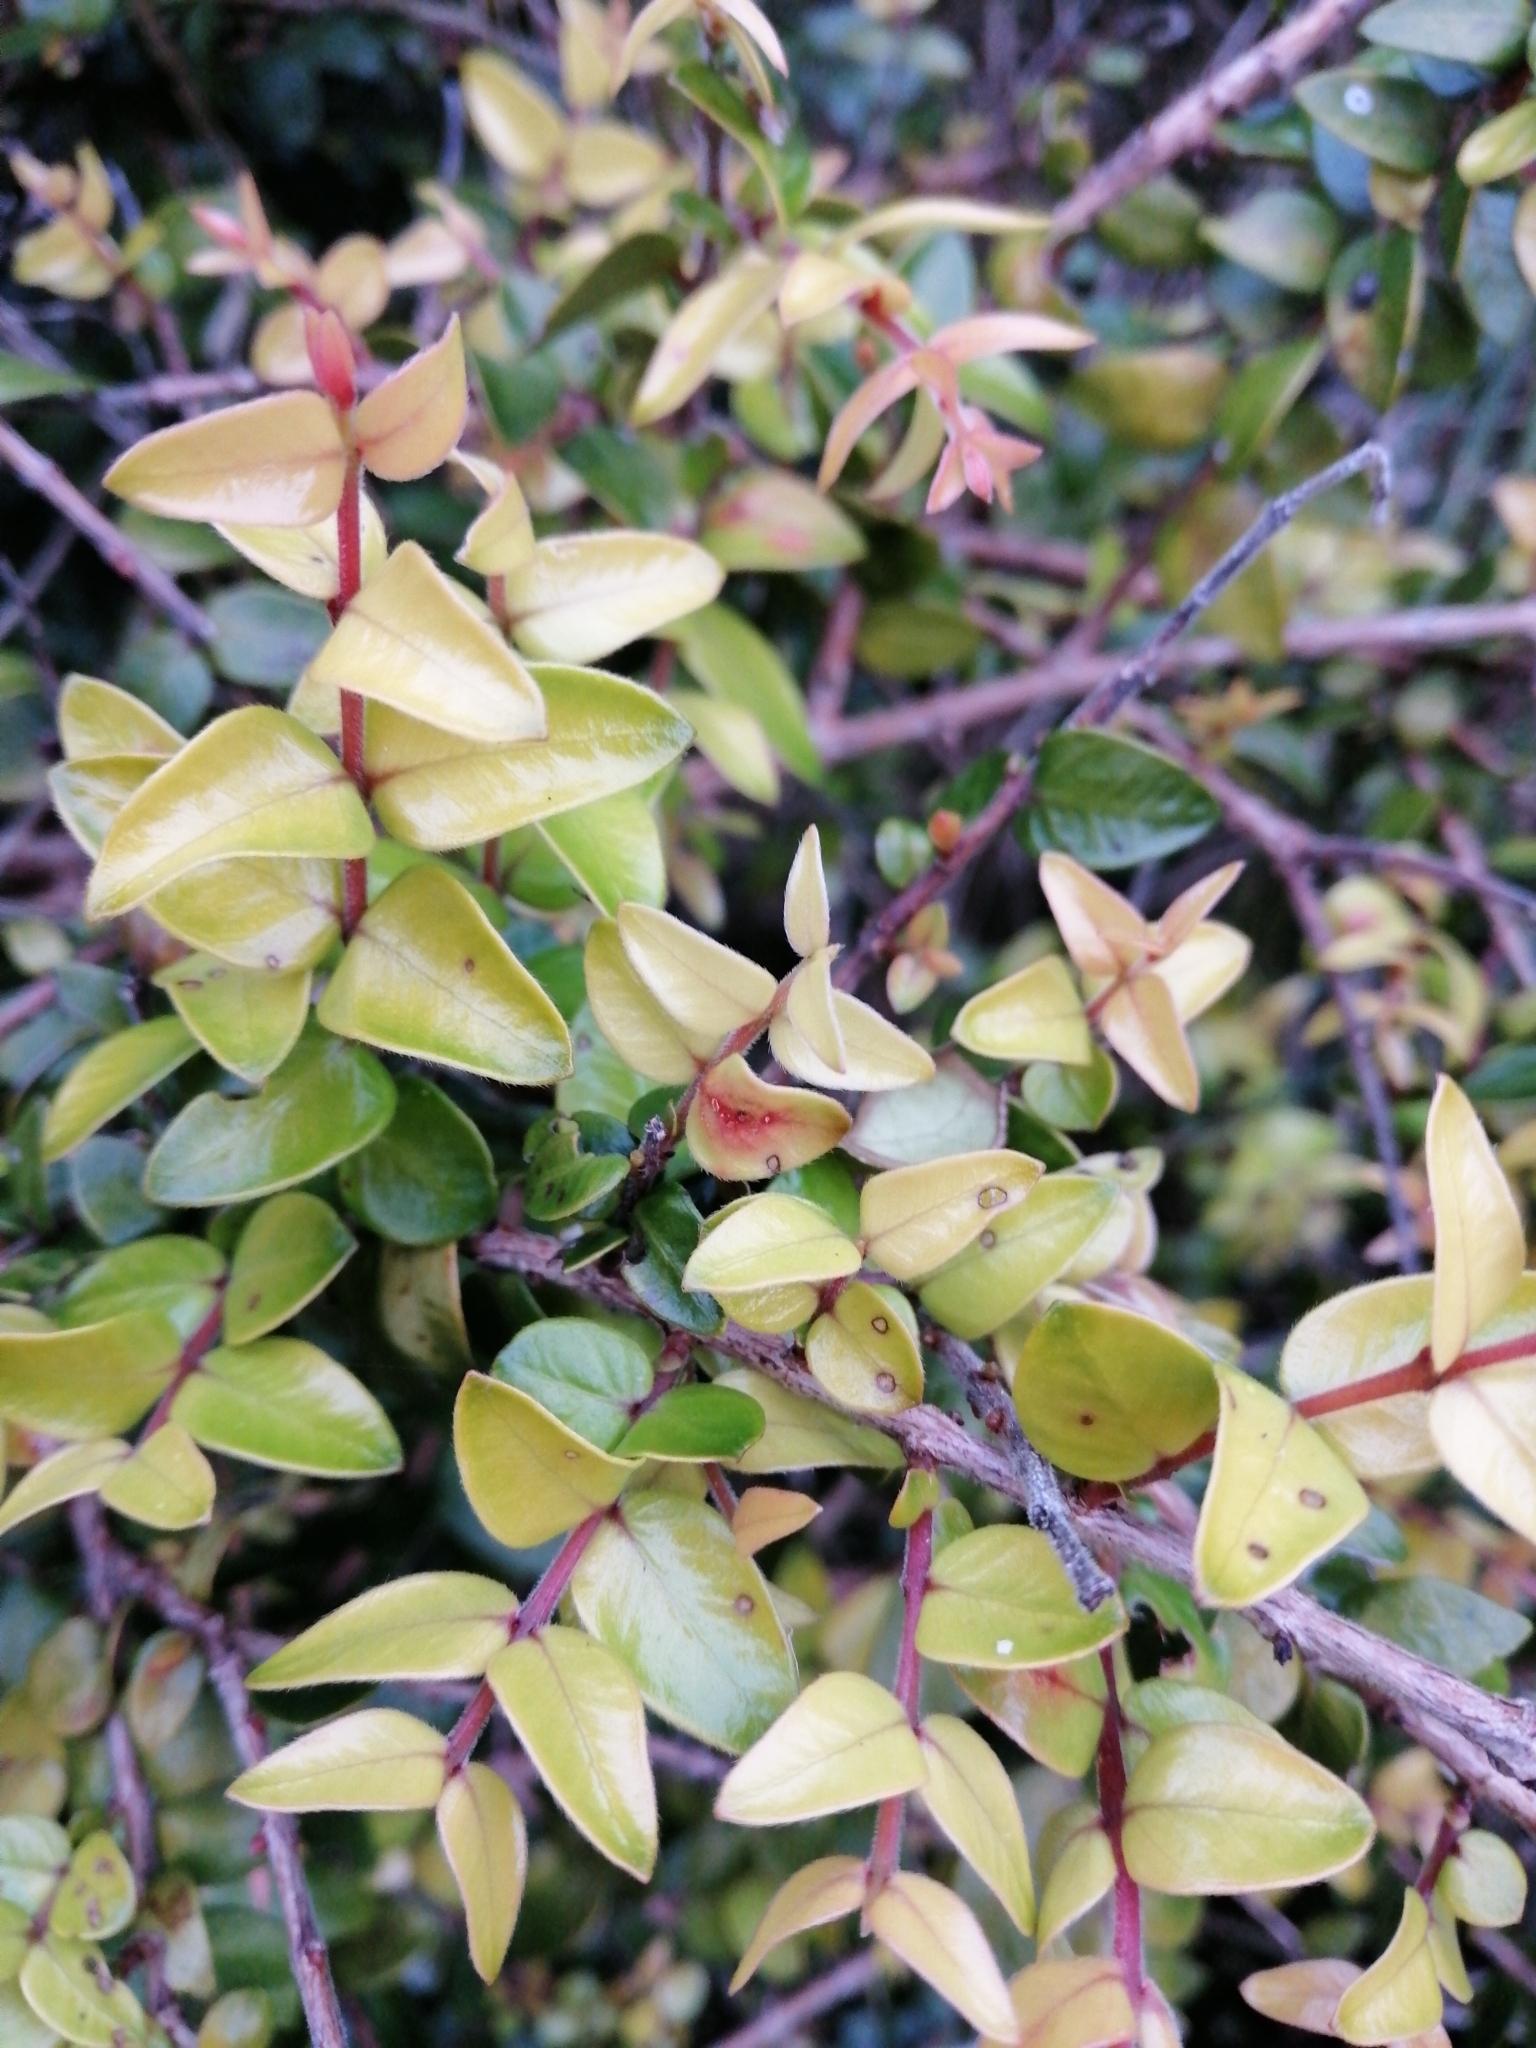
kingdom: Fungi
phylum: Basidiomycota
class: Pucciniomycetes
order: Pucciniales
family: Sphaerophragmiaceae
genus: Austropuccinia
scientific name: Austropuccinia psidii
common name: Myrtle rust
